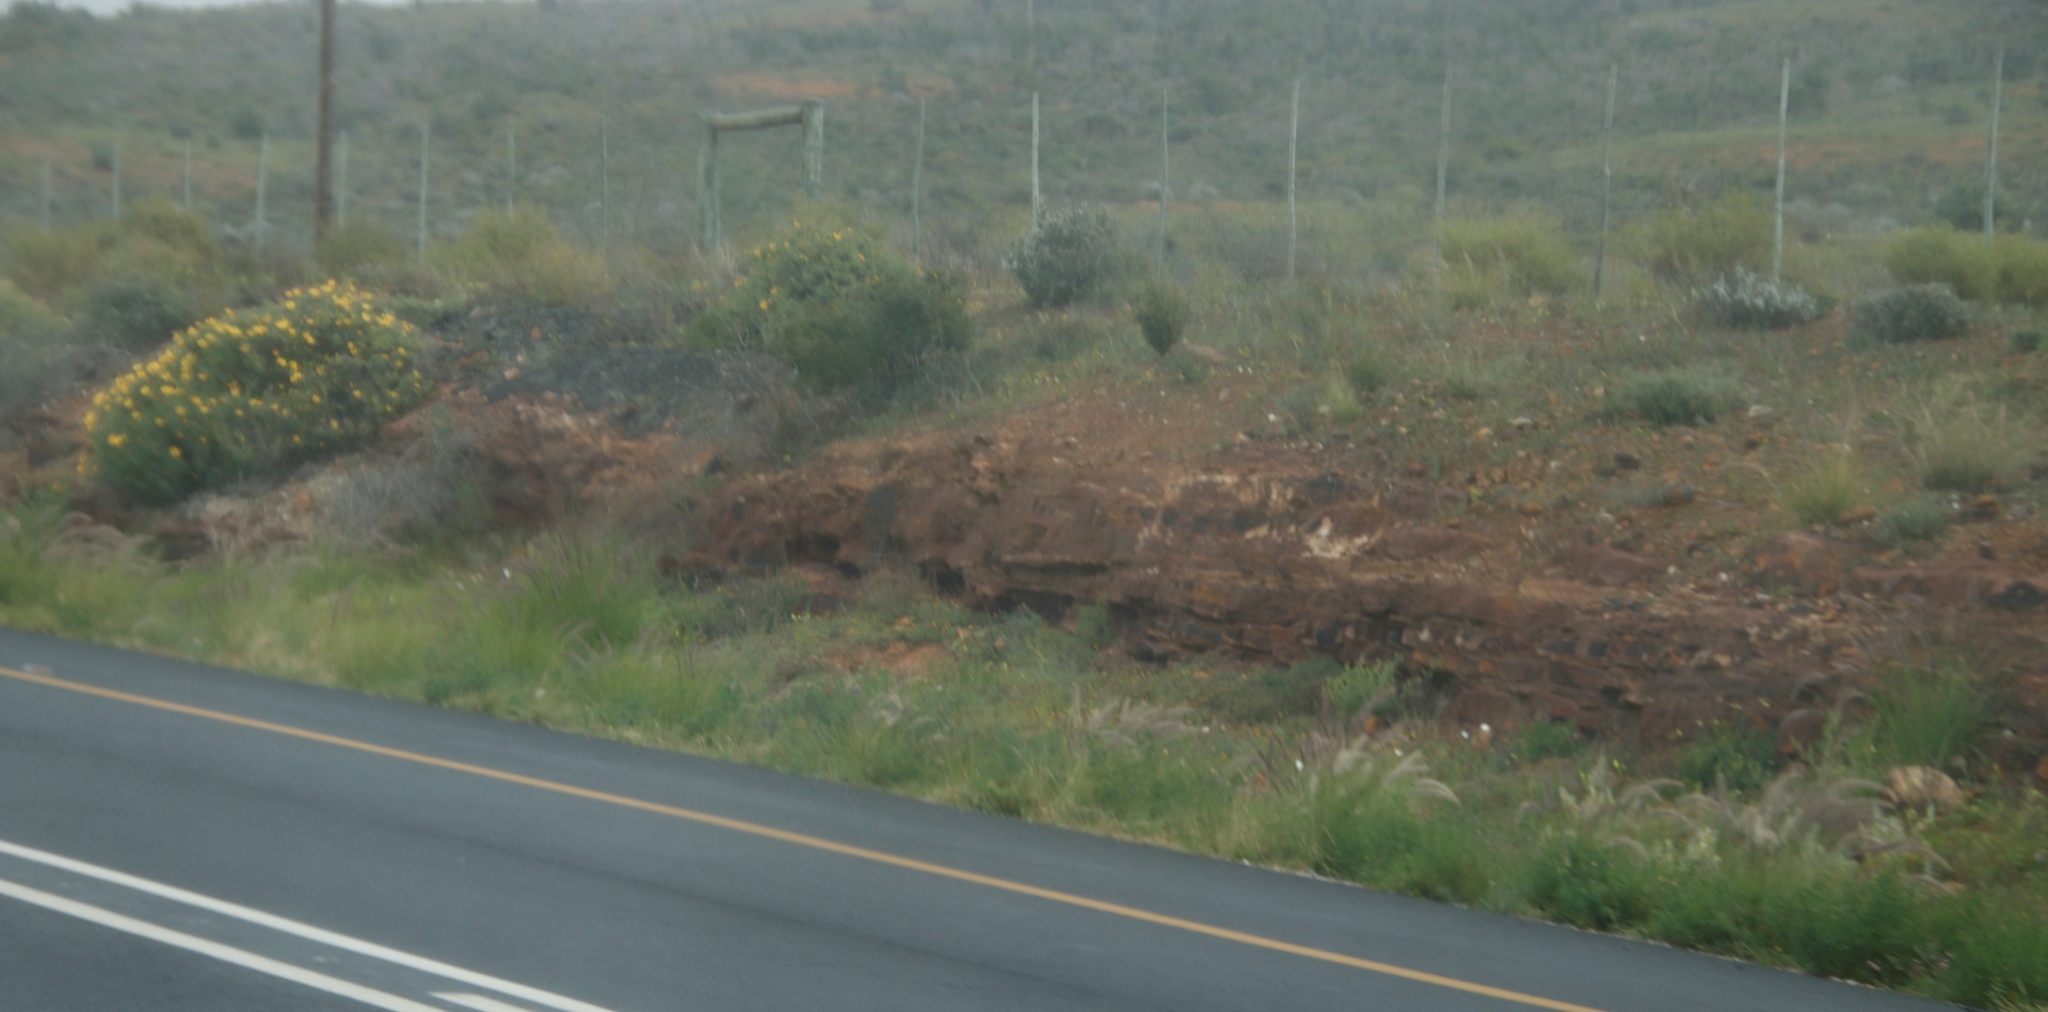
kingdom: Plantae
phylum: Tracheophyta
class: Liliopsida
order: Poales
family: Poaceae
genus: Cenchrus
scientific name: Cenchrus setaceus
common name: Crimson fountaingrass
